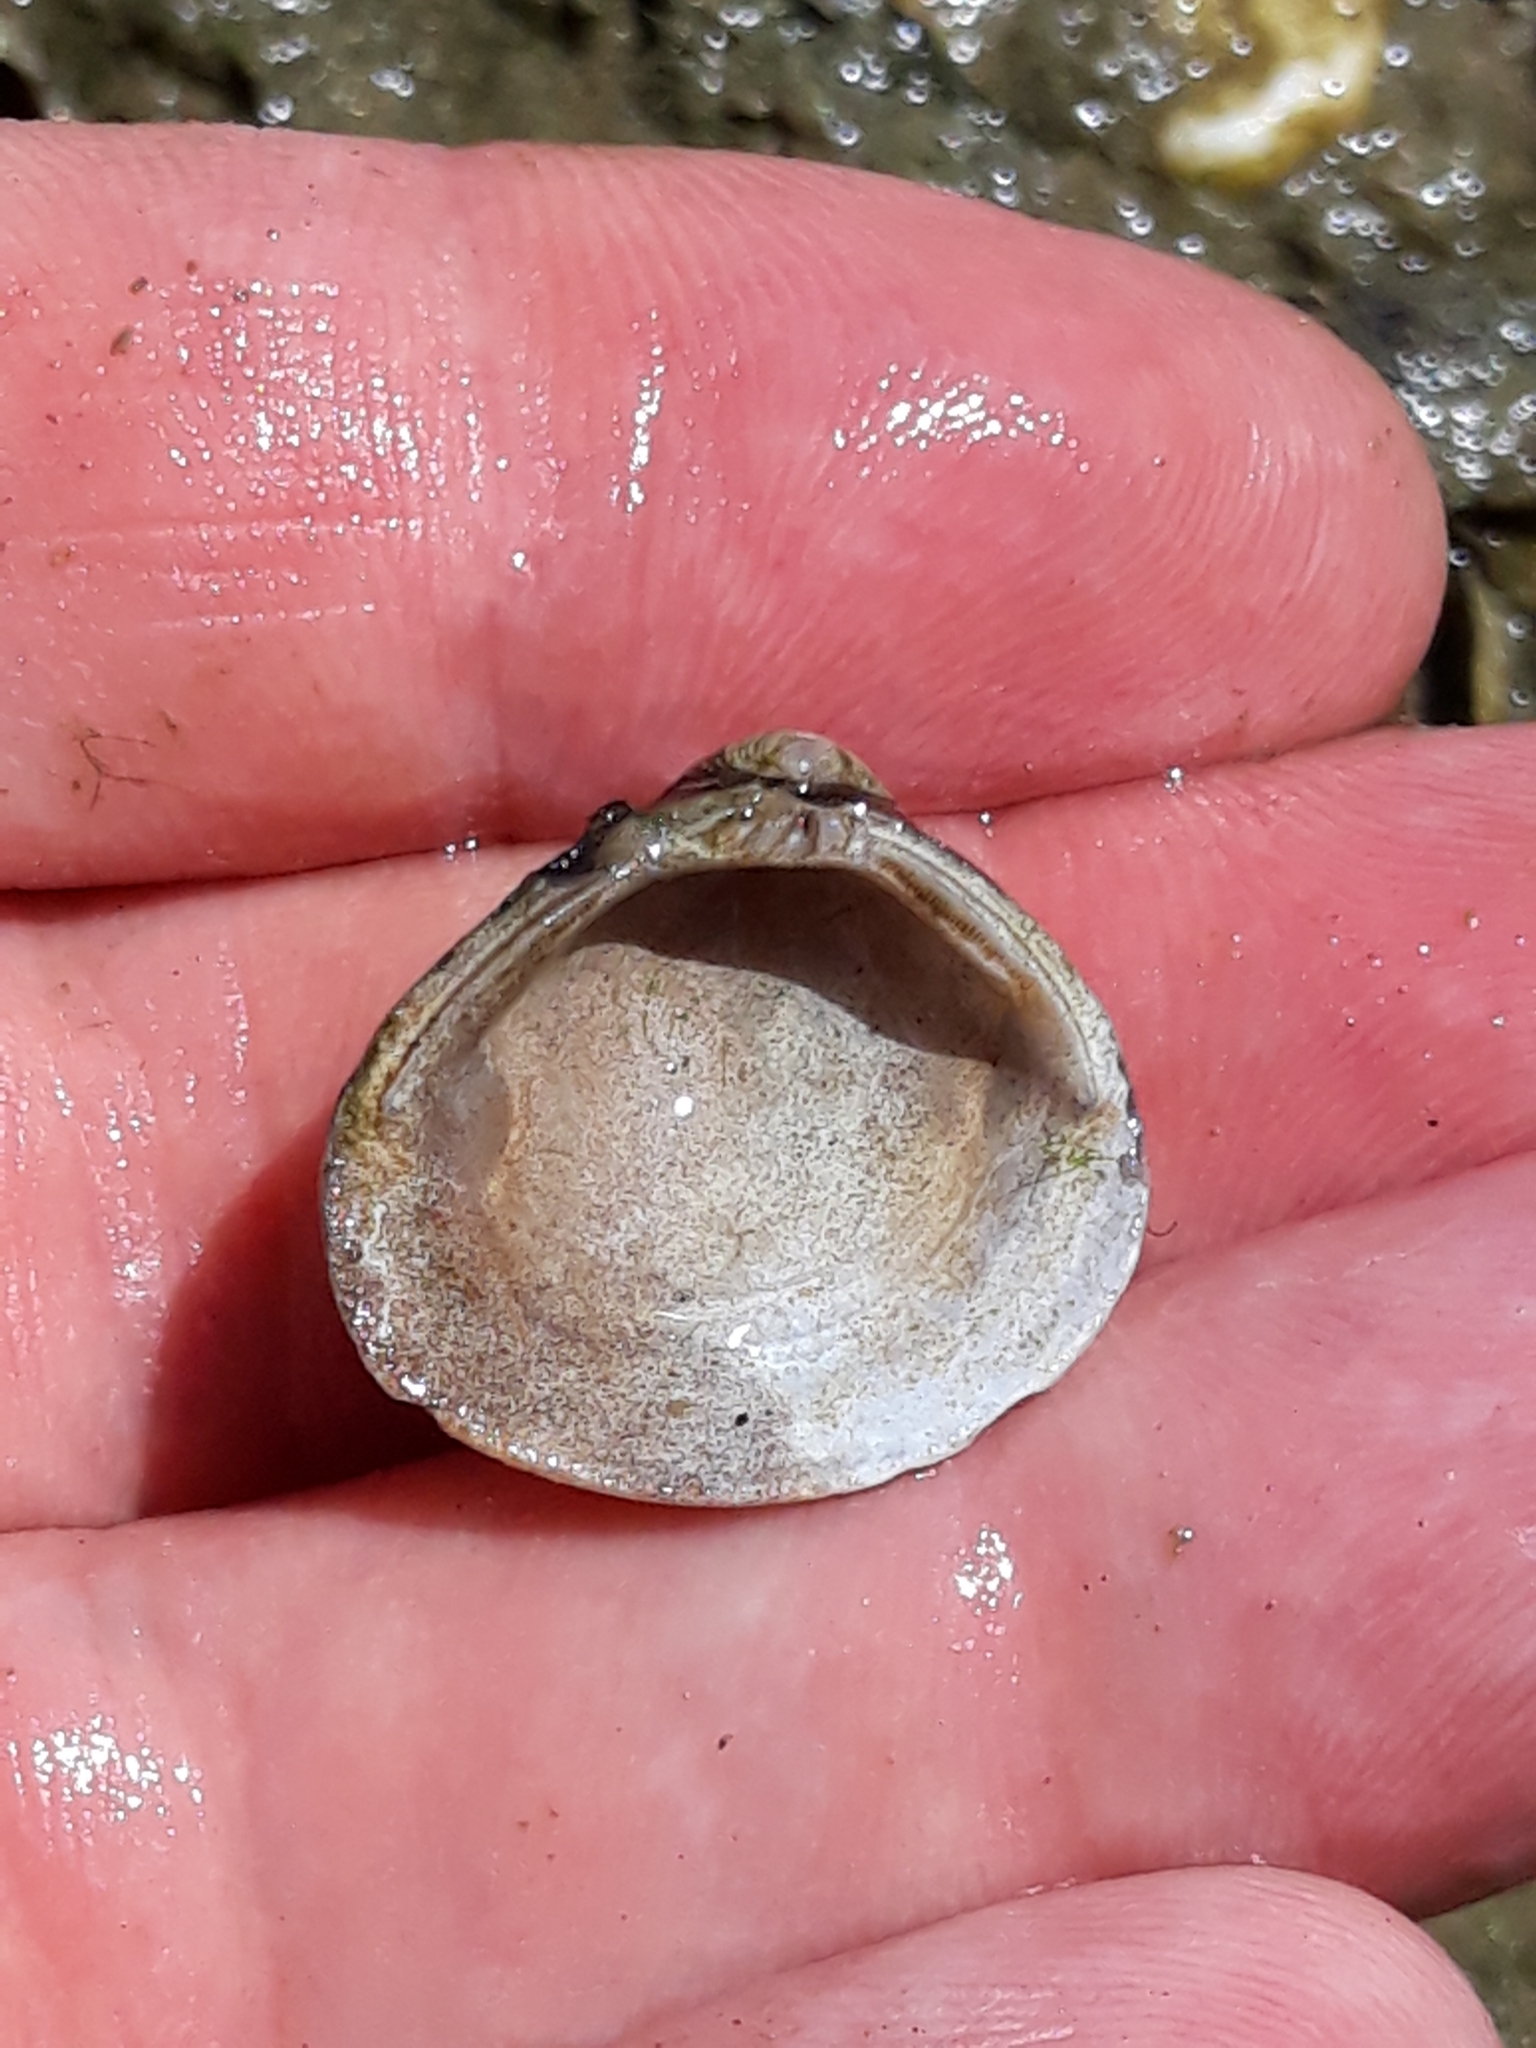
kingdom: Animalia
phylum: Mollusca
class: Bivalvia
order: Venerida
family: Cyrenidae
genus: Corbicula
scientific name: Corbicula fluminea
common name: Asian clam
